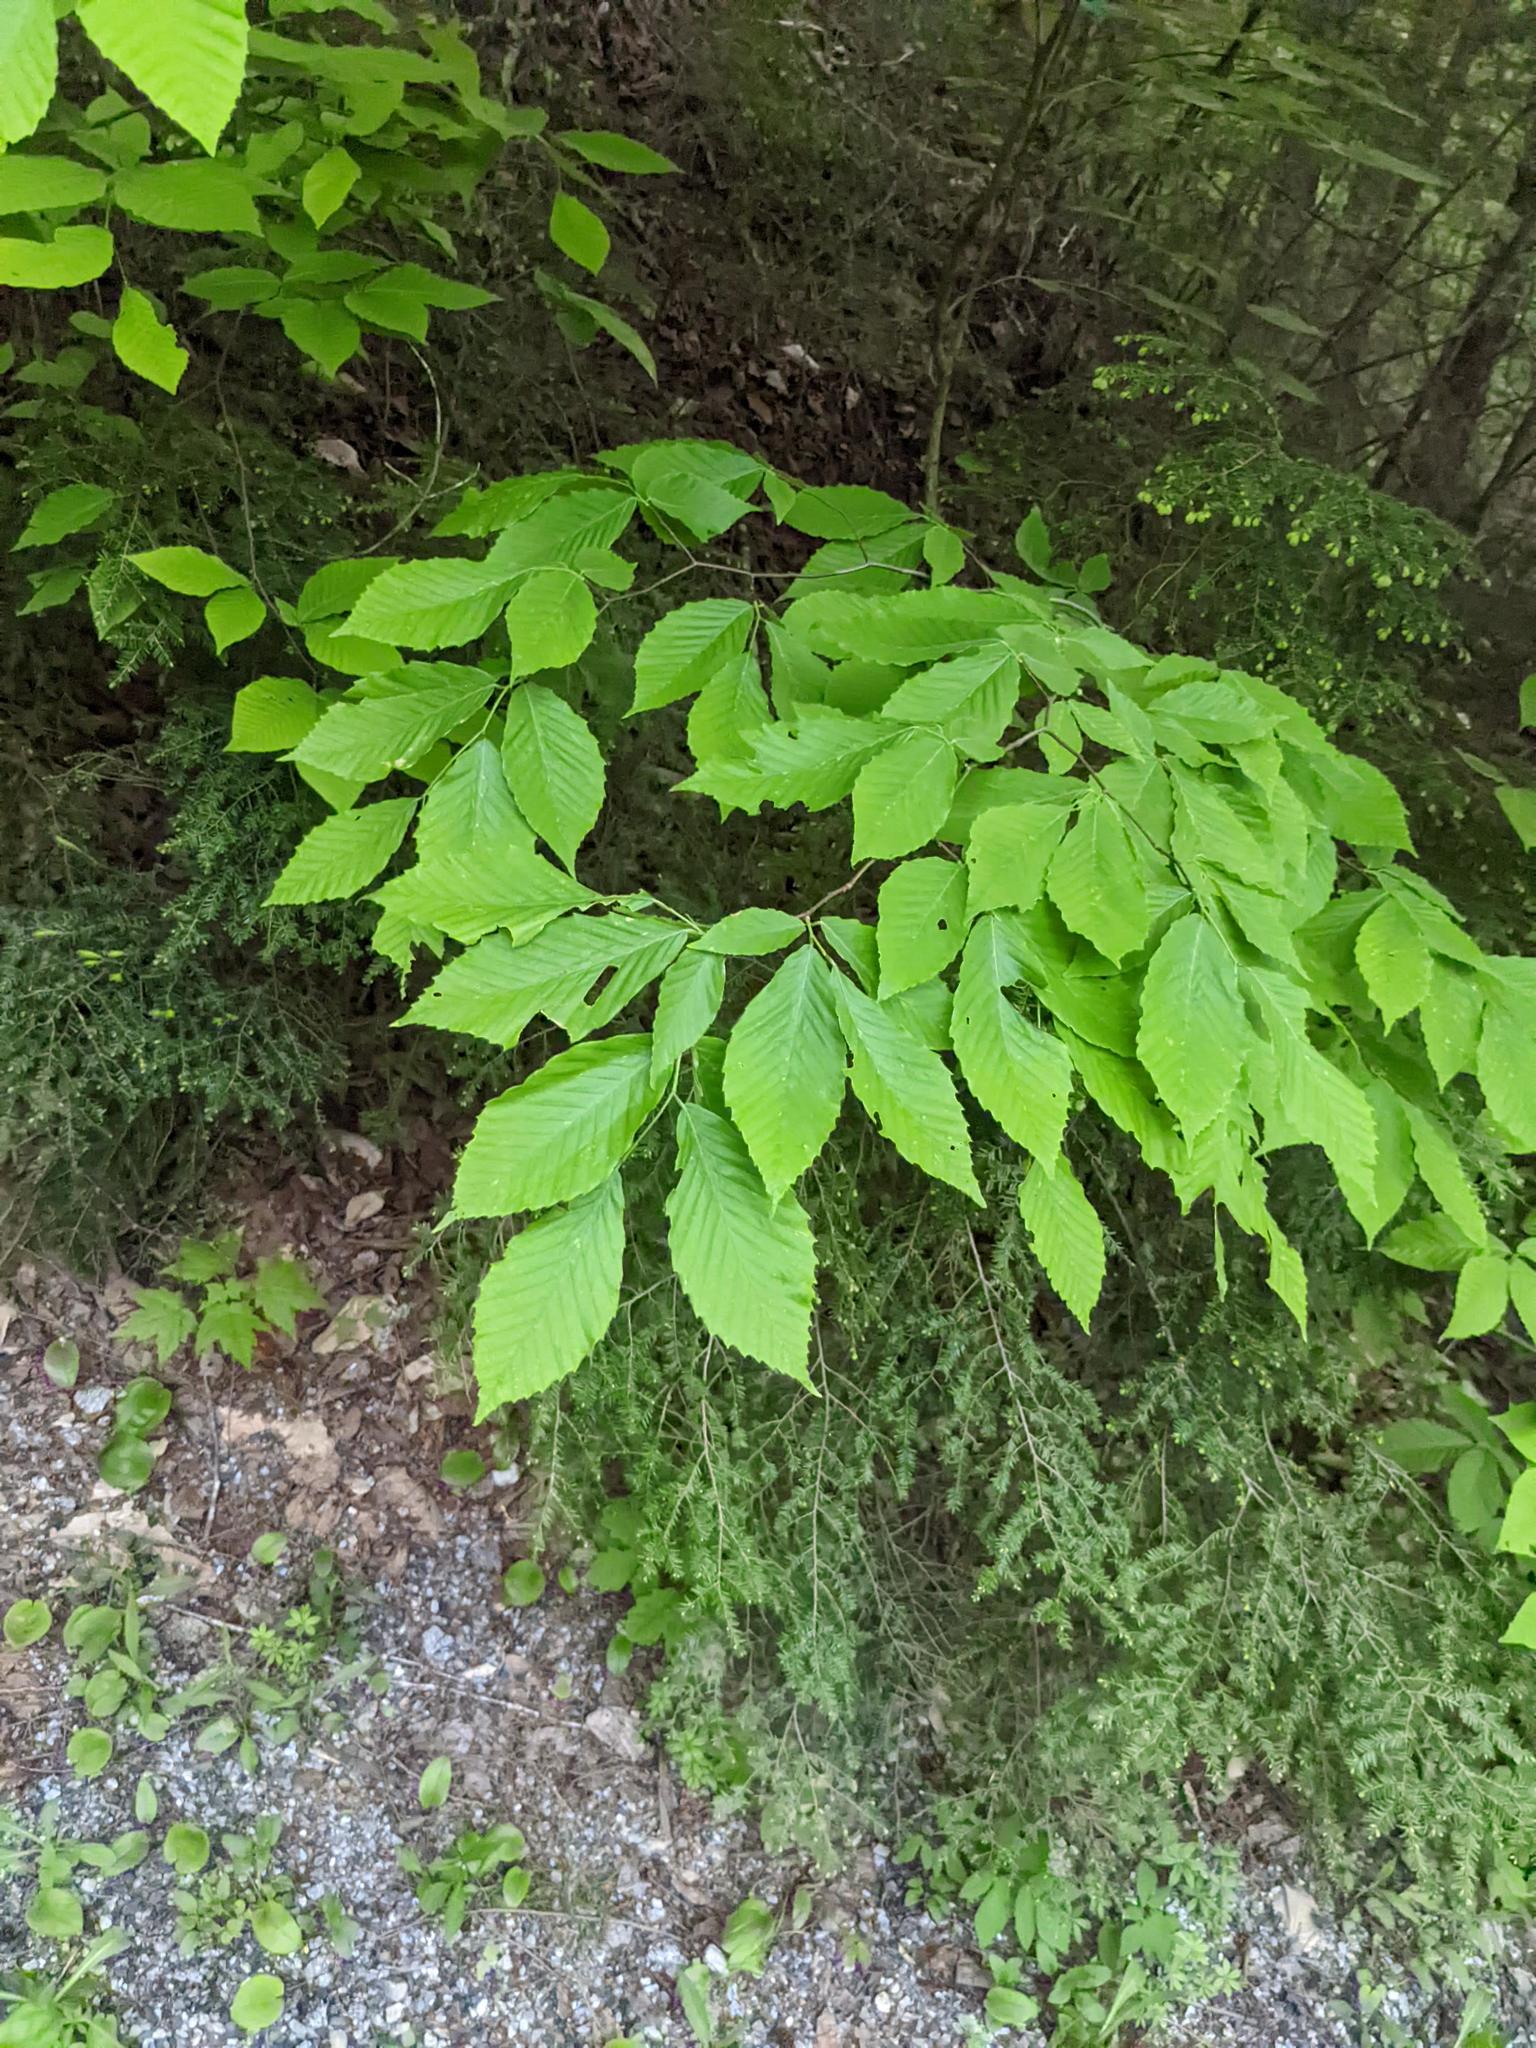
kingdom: Plantae
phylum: Tracheophyta
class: Magnoliopsida
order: Fagales
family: Fagaceae
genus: Fagus
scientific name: Fagus grandifolia
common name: American beech
